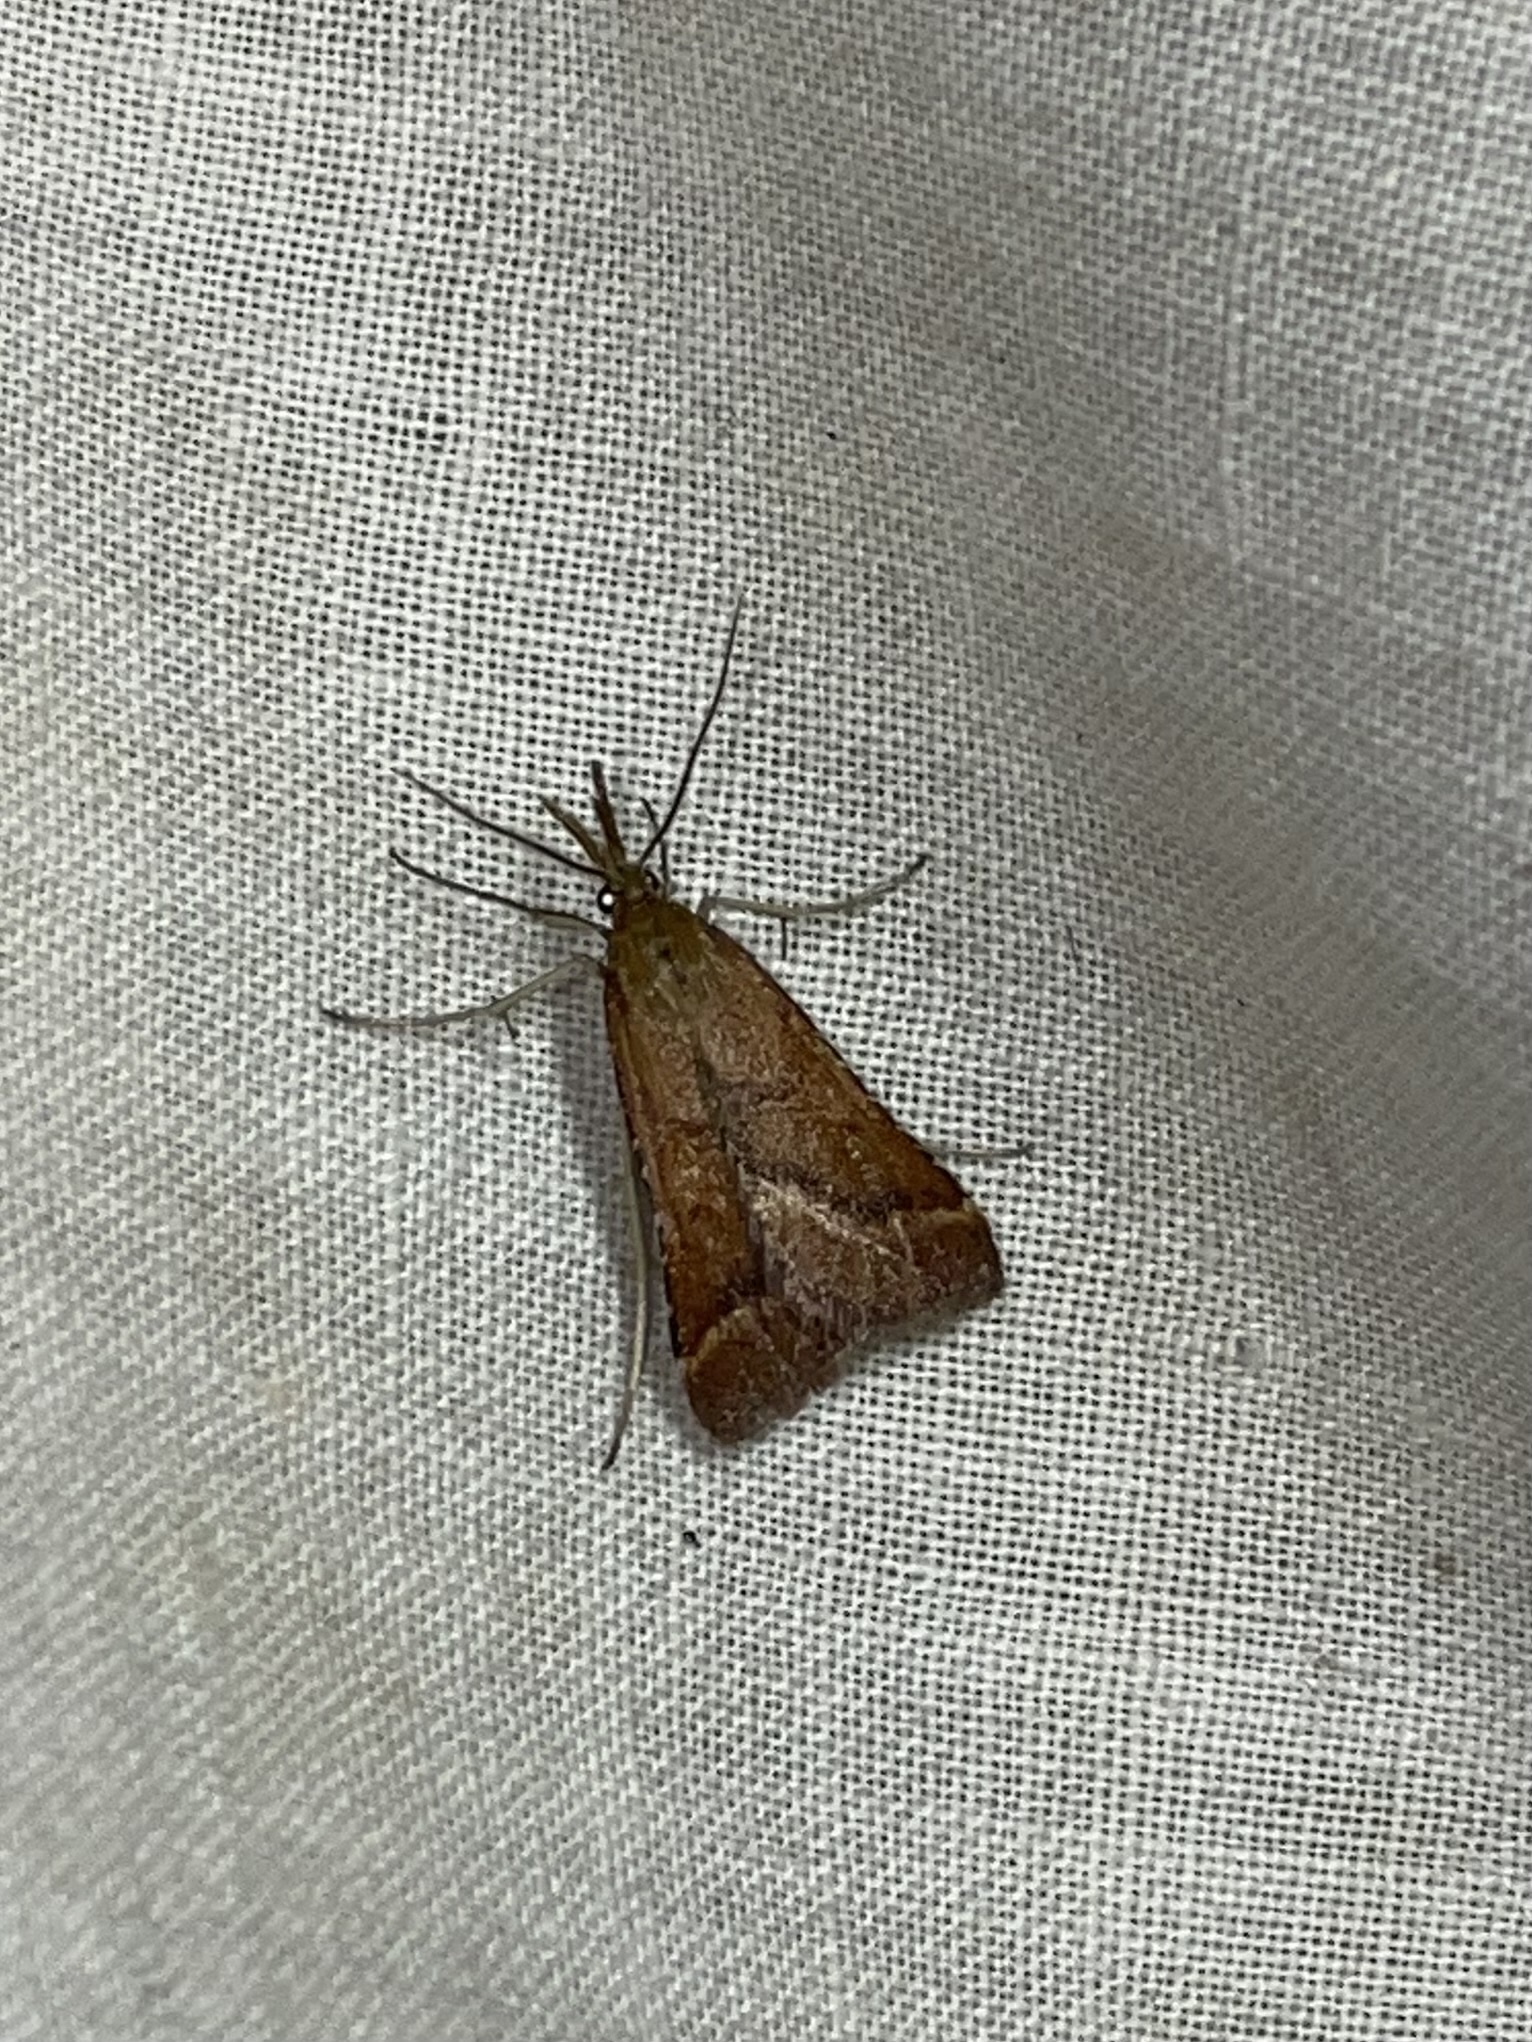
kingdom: Animalia
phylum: Arthropoda
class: Insecta
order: Lepidoptera
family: Pyralidae
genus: Synaphe
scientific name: Synaphe punctalis
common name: Long-legged tabby
